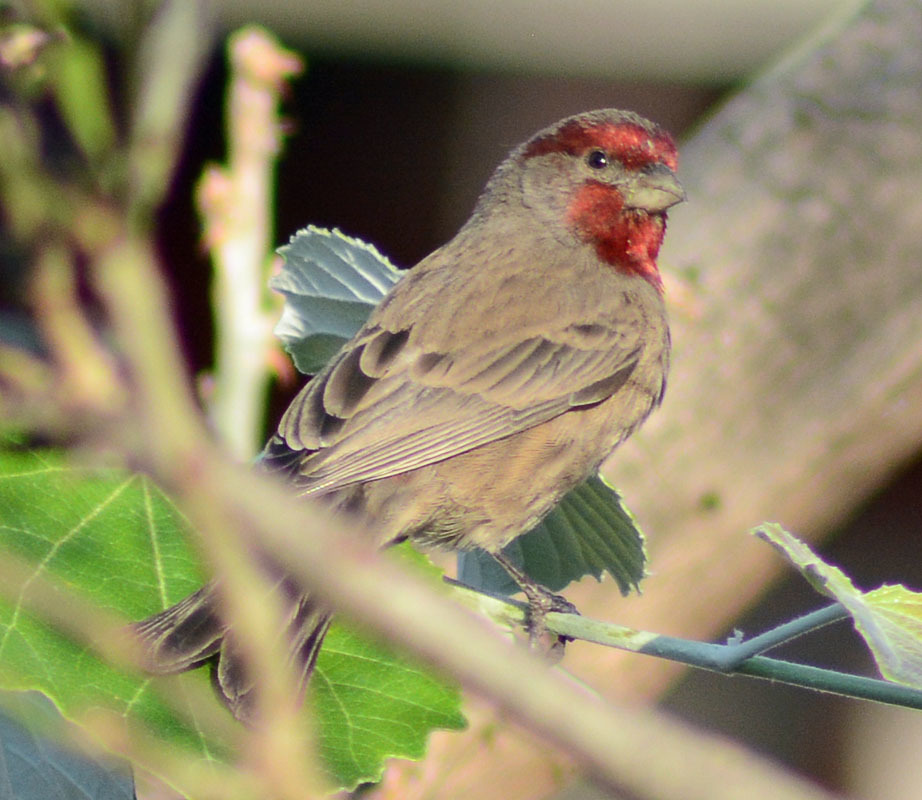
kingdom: Animalia
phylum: Chordata
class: Aves
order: Passeriformes
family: Fringillidae
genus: Haemorhous
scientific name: Haemorhous mexicanus
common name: House finch
